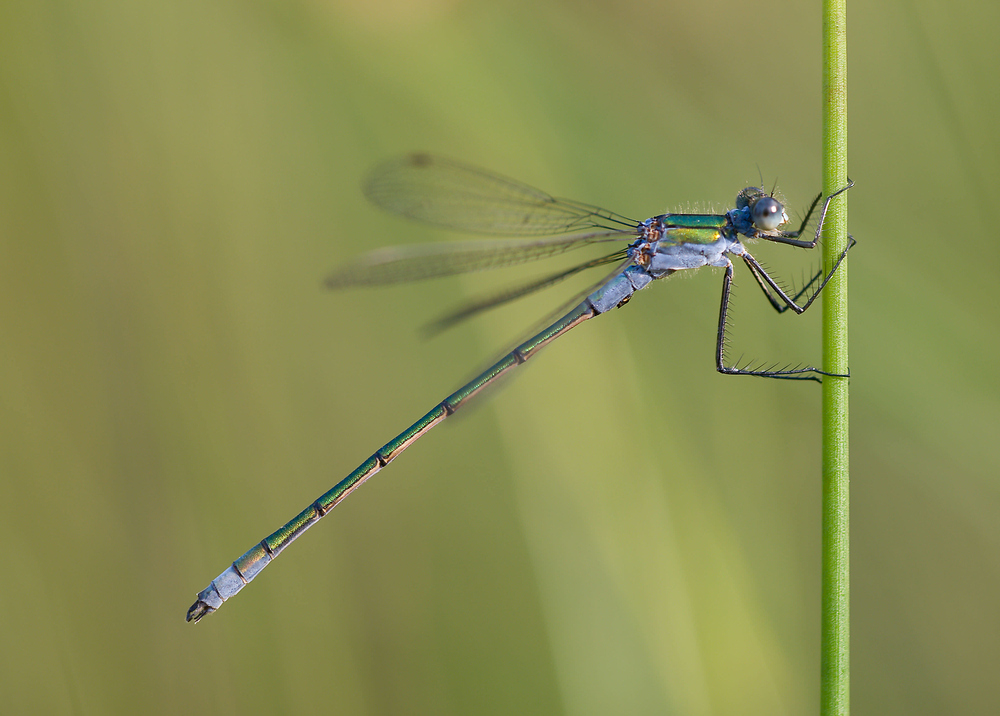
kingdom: Animalia
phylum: Arthropoda
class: Insecta
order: Odonata
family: Lestidae
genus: Lestes
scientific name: Lestes sponsa
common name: Common spreadwing
